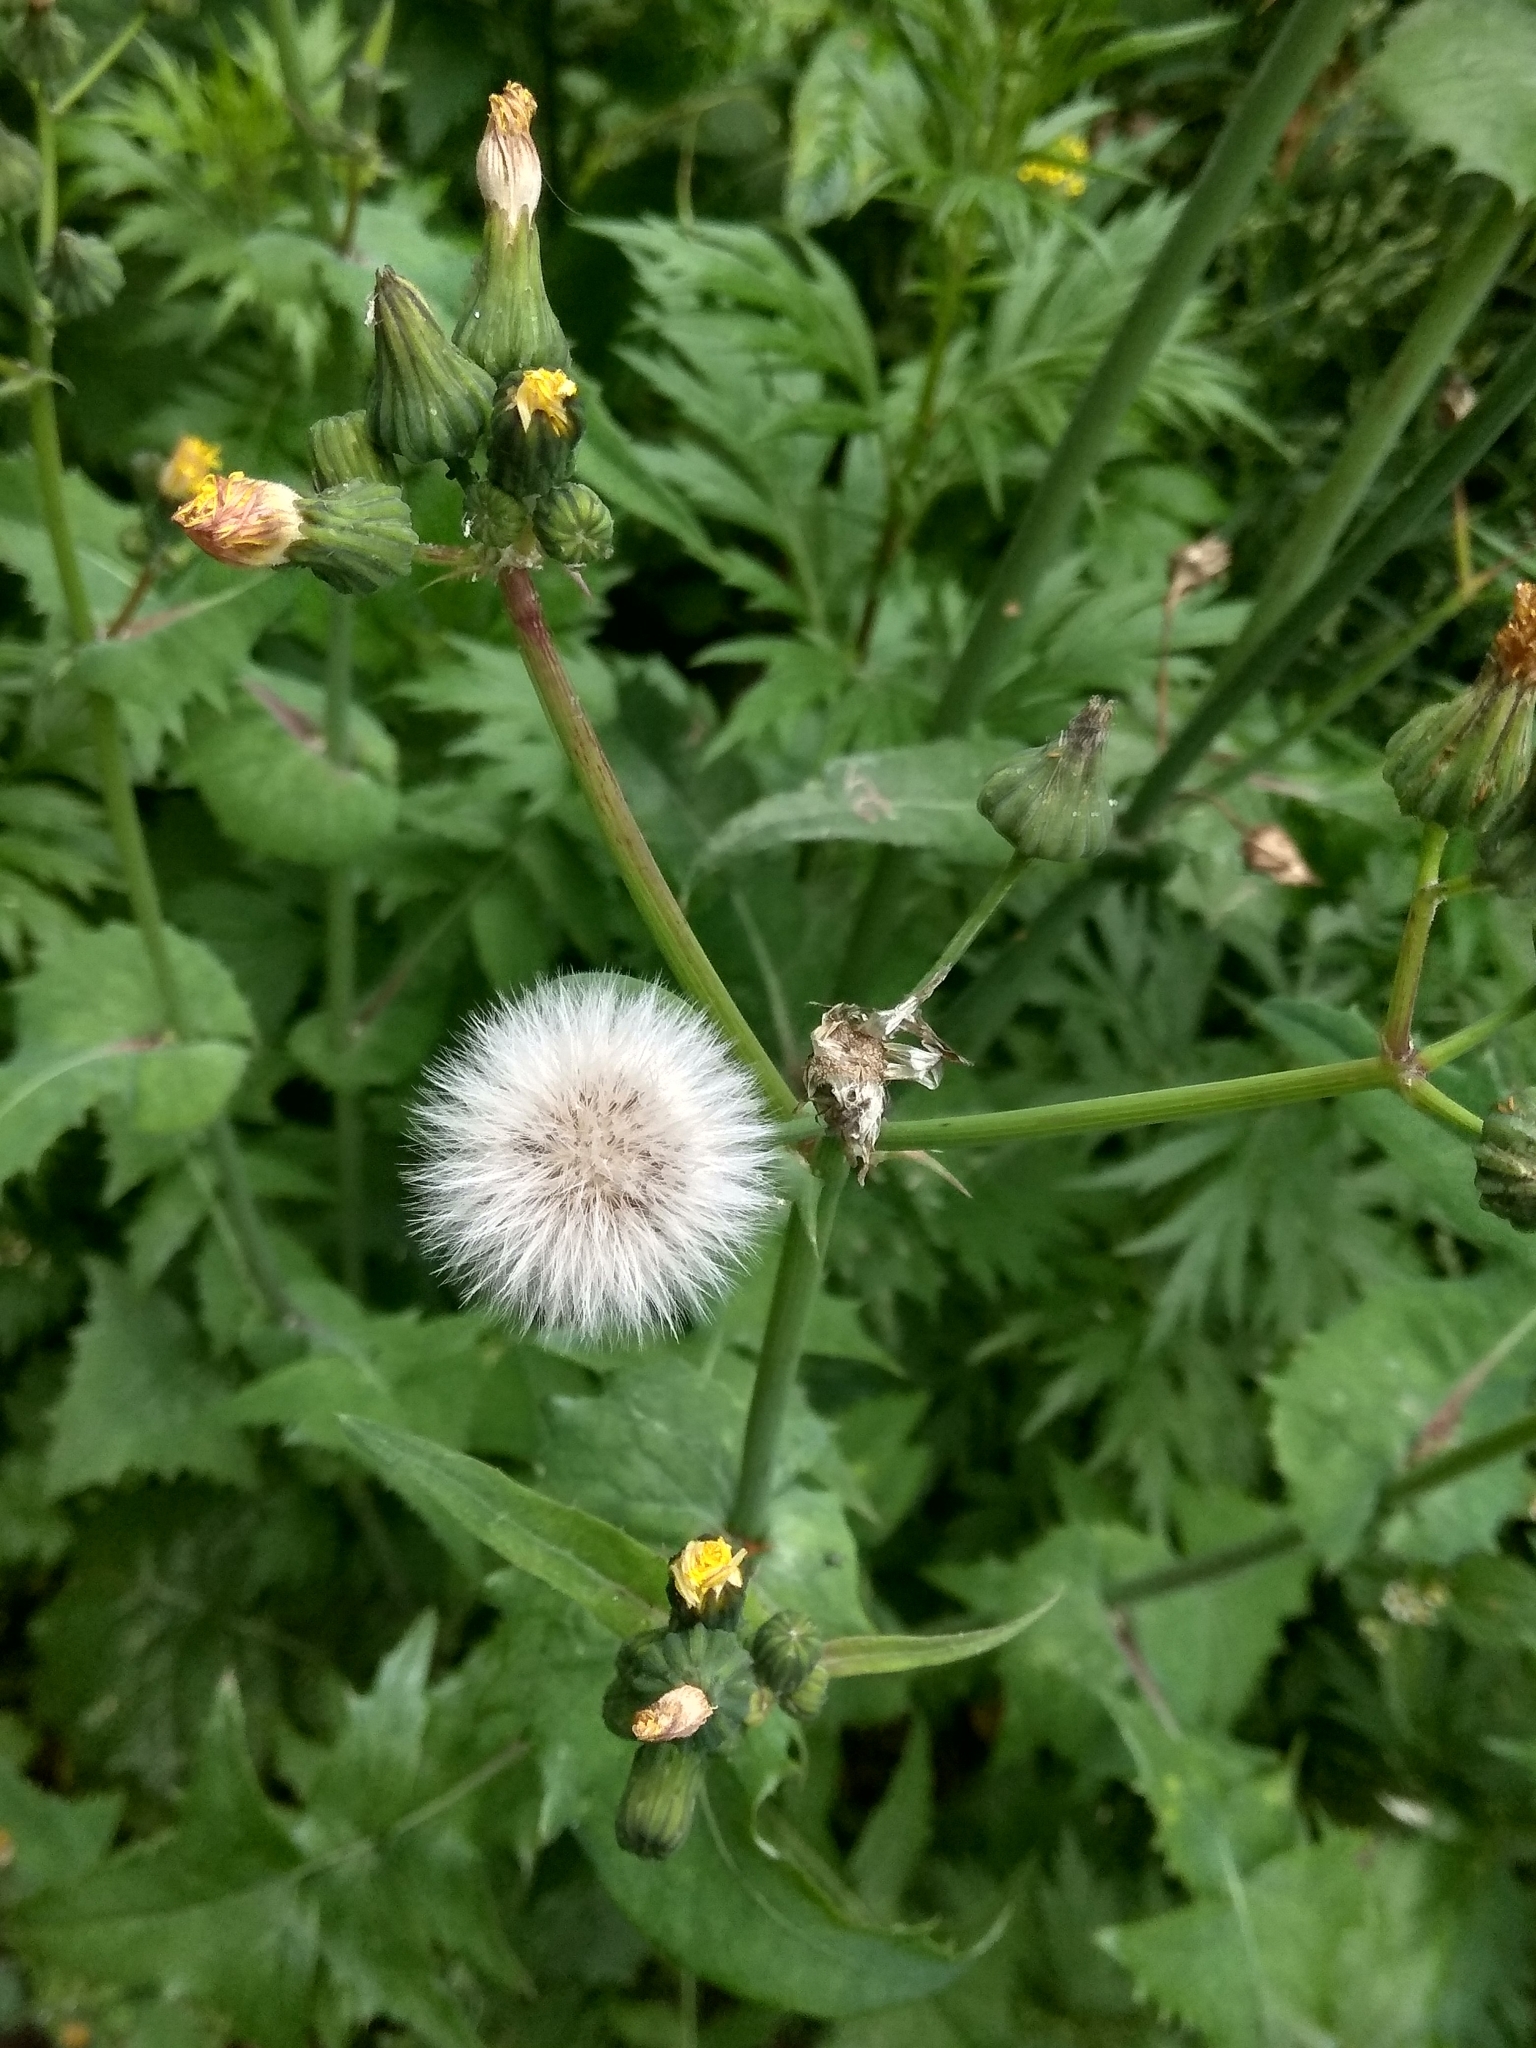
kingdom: Plantae
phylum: Tracheophyta
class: Magnoliopsida
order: Asterales
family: Asteraceae
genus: Sonchus
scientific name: Sonchus oleraceus
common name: Common sowthistle
